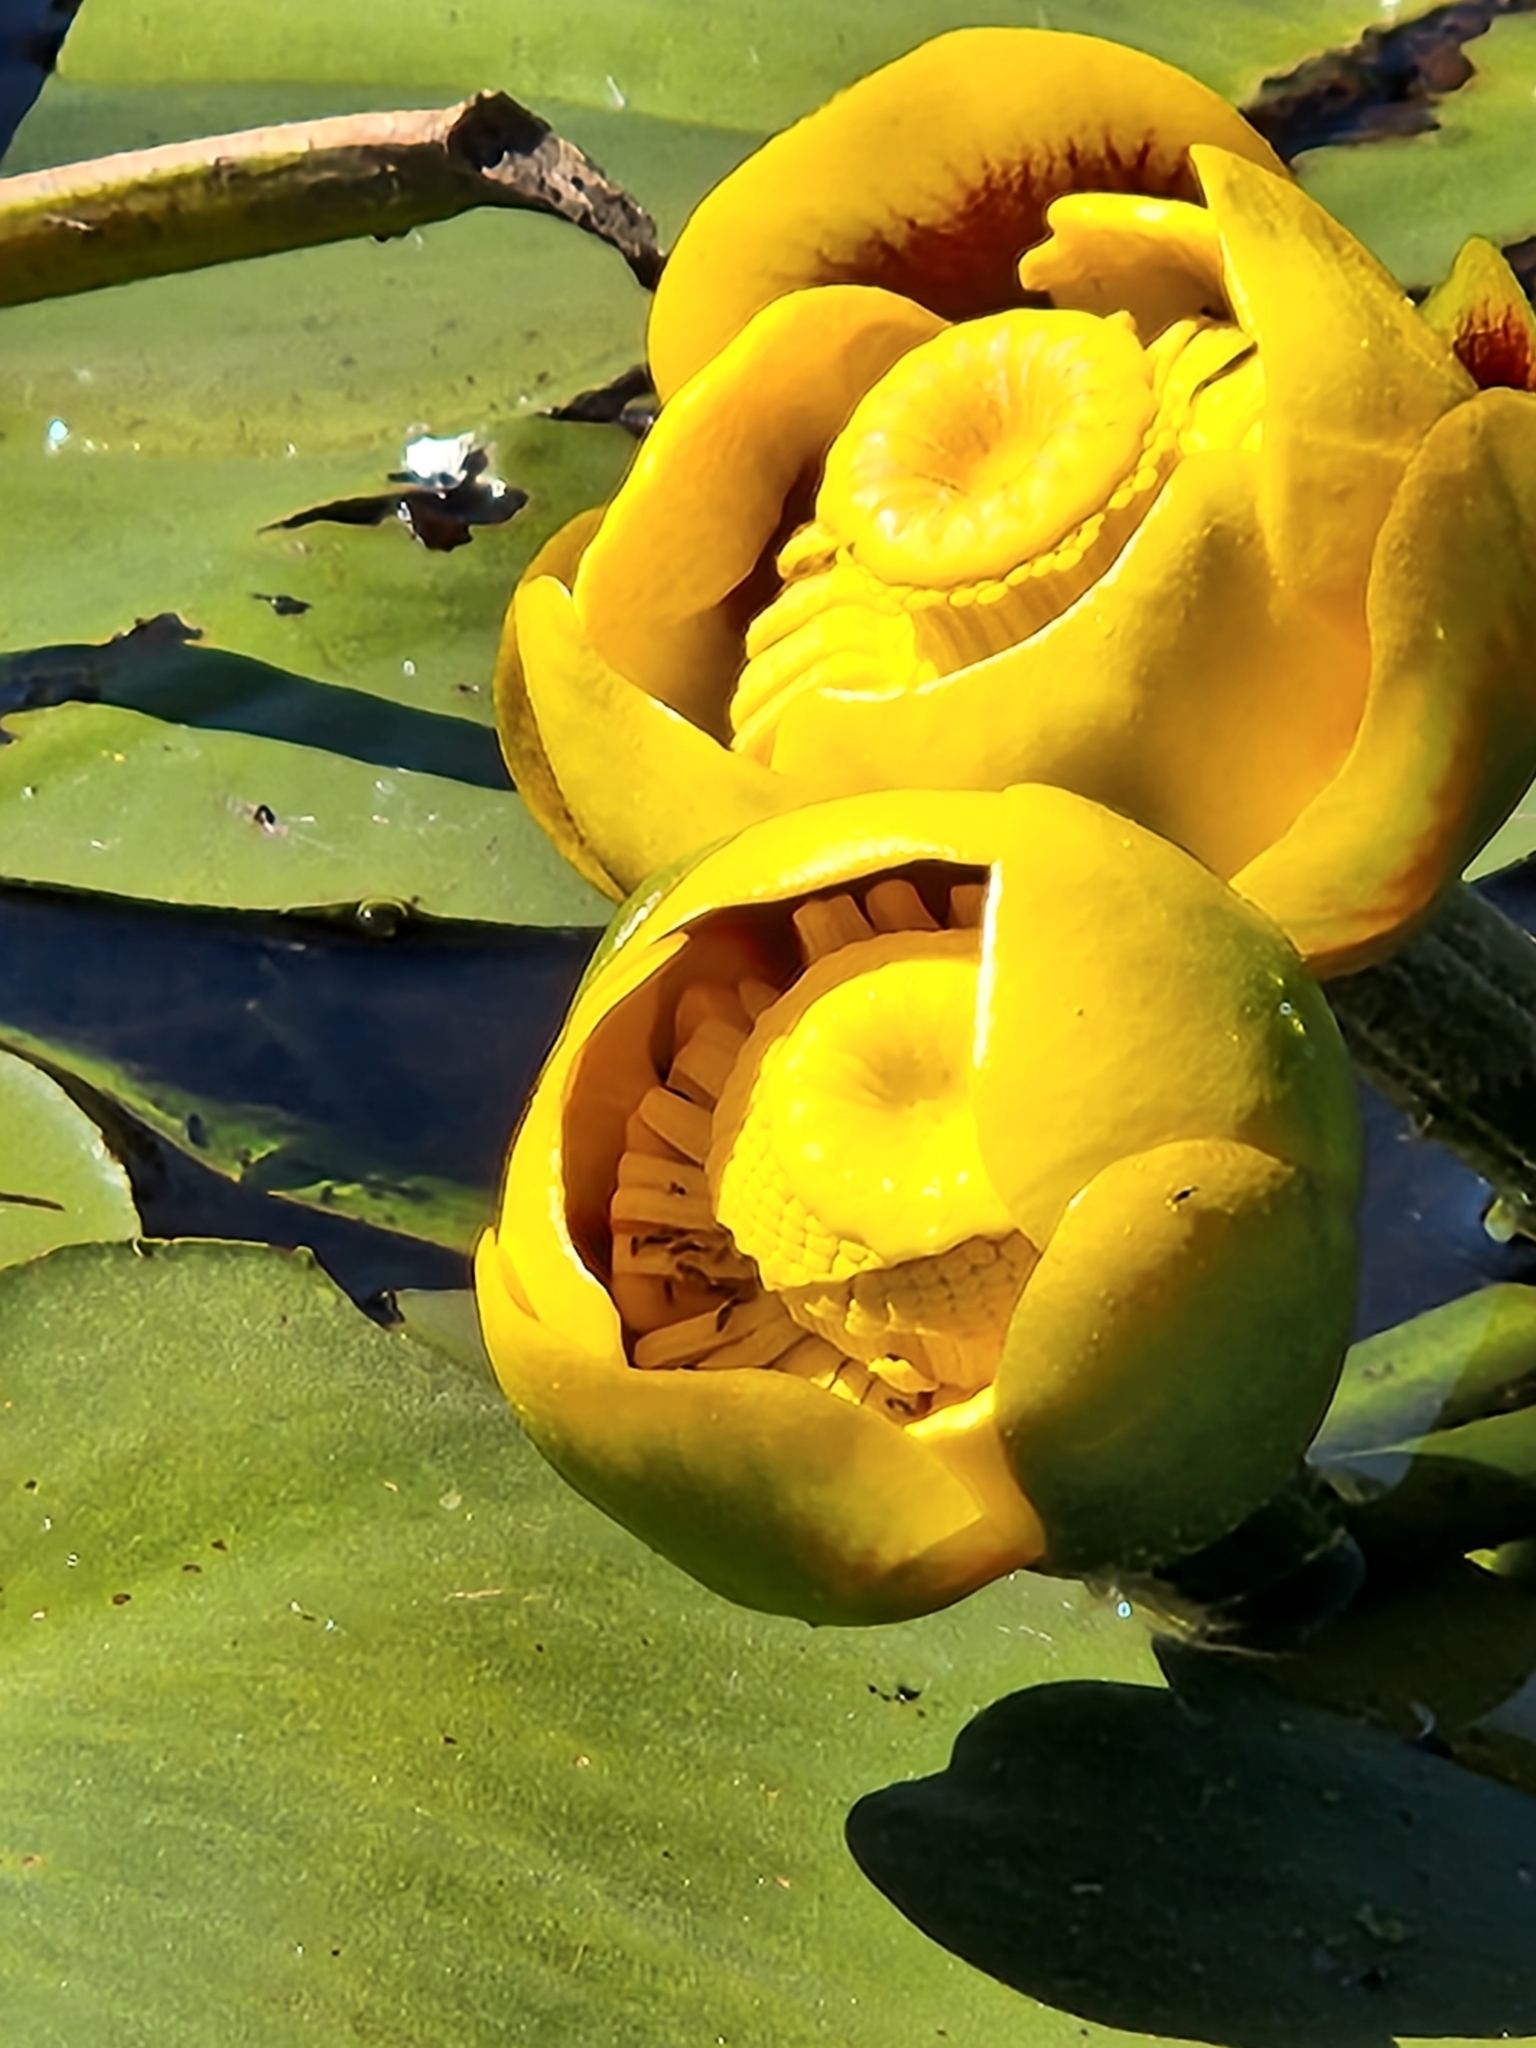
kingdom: Plantae
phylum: Tracheophyta
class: Magnoliopsida
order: Nymphaeales
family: Nymphaeaceae
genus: Nuphar
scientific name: Nuphar polysepala
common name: Rocky mountain cow-lily
